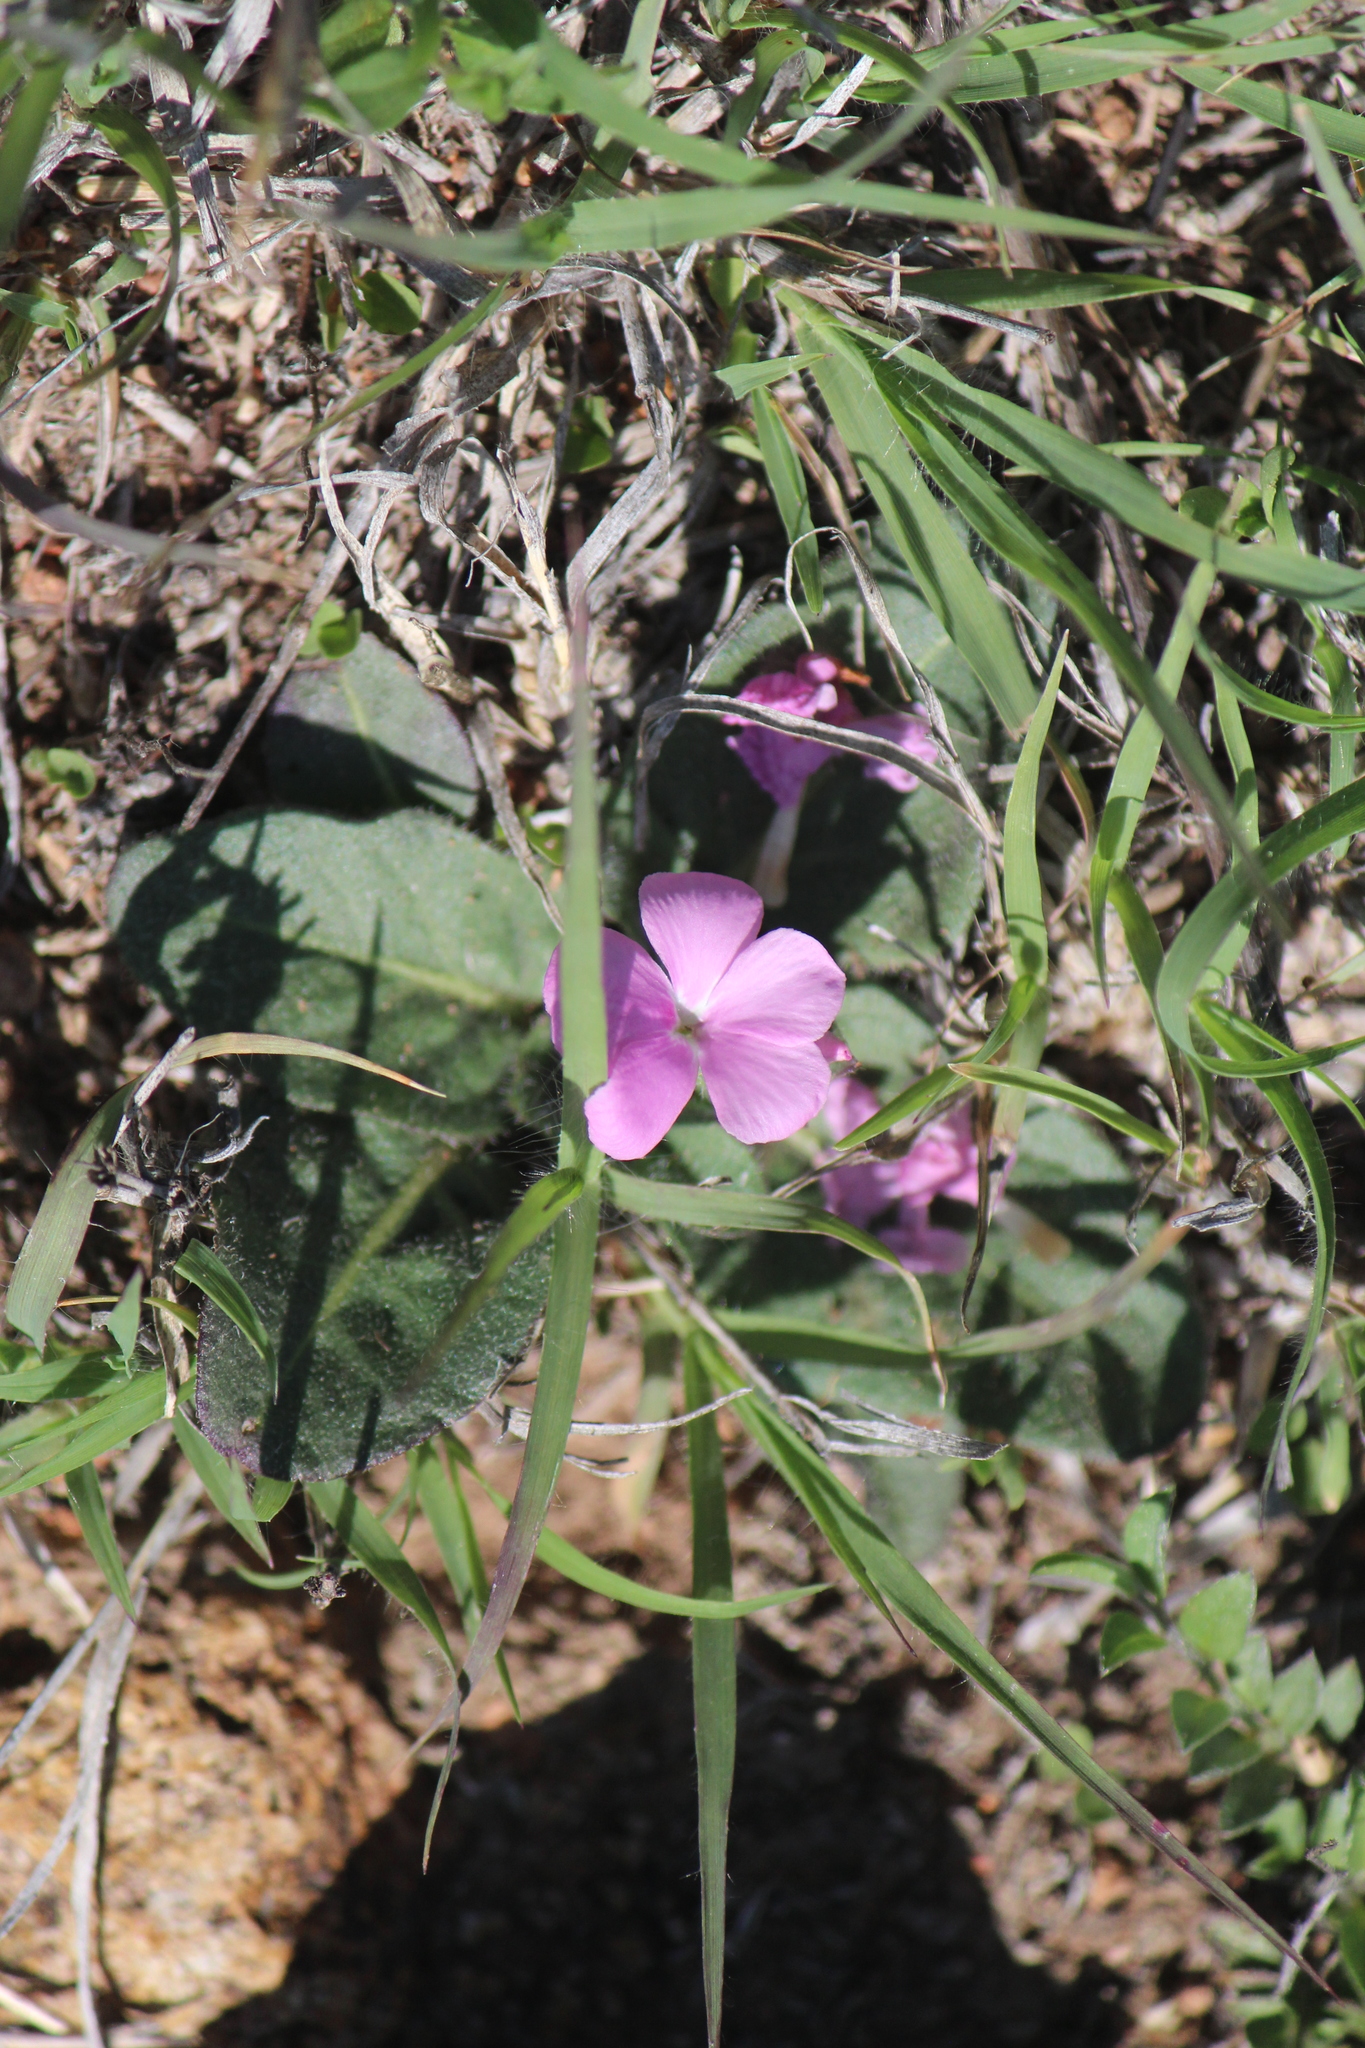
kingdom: Plantae
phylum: Tracheophyta
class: Magnoliopsida
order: Lamiales
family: Acanthaceae
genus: Stenandrium
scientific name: Stenandrium dulce
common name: Pinklet
